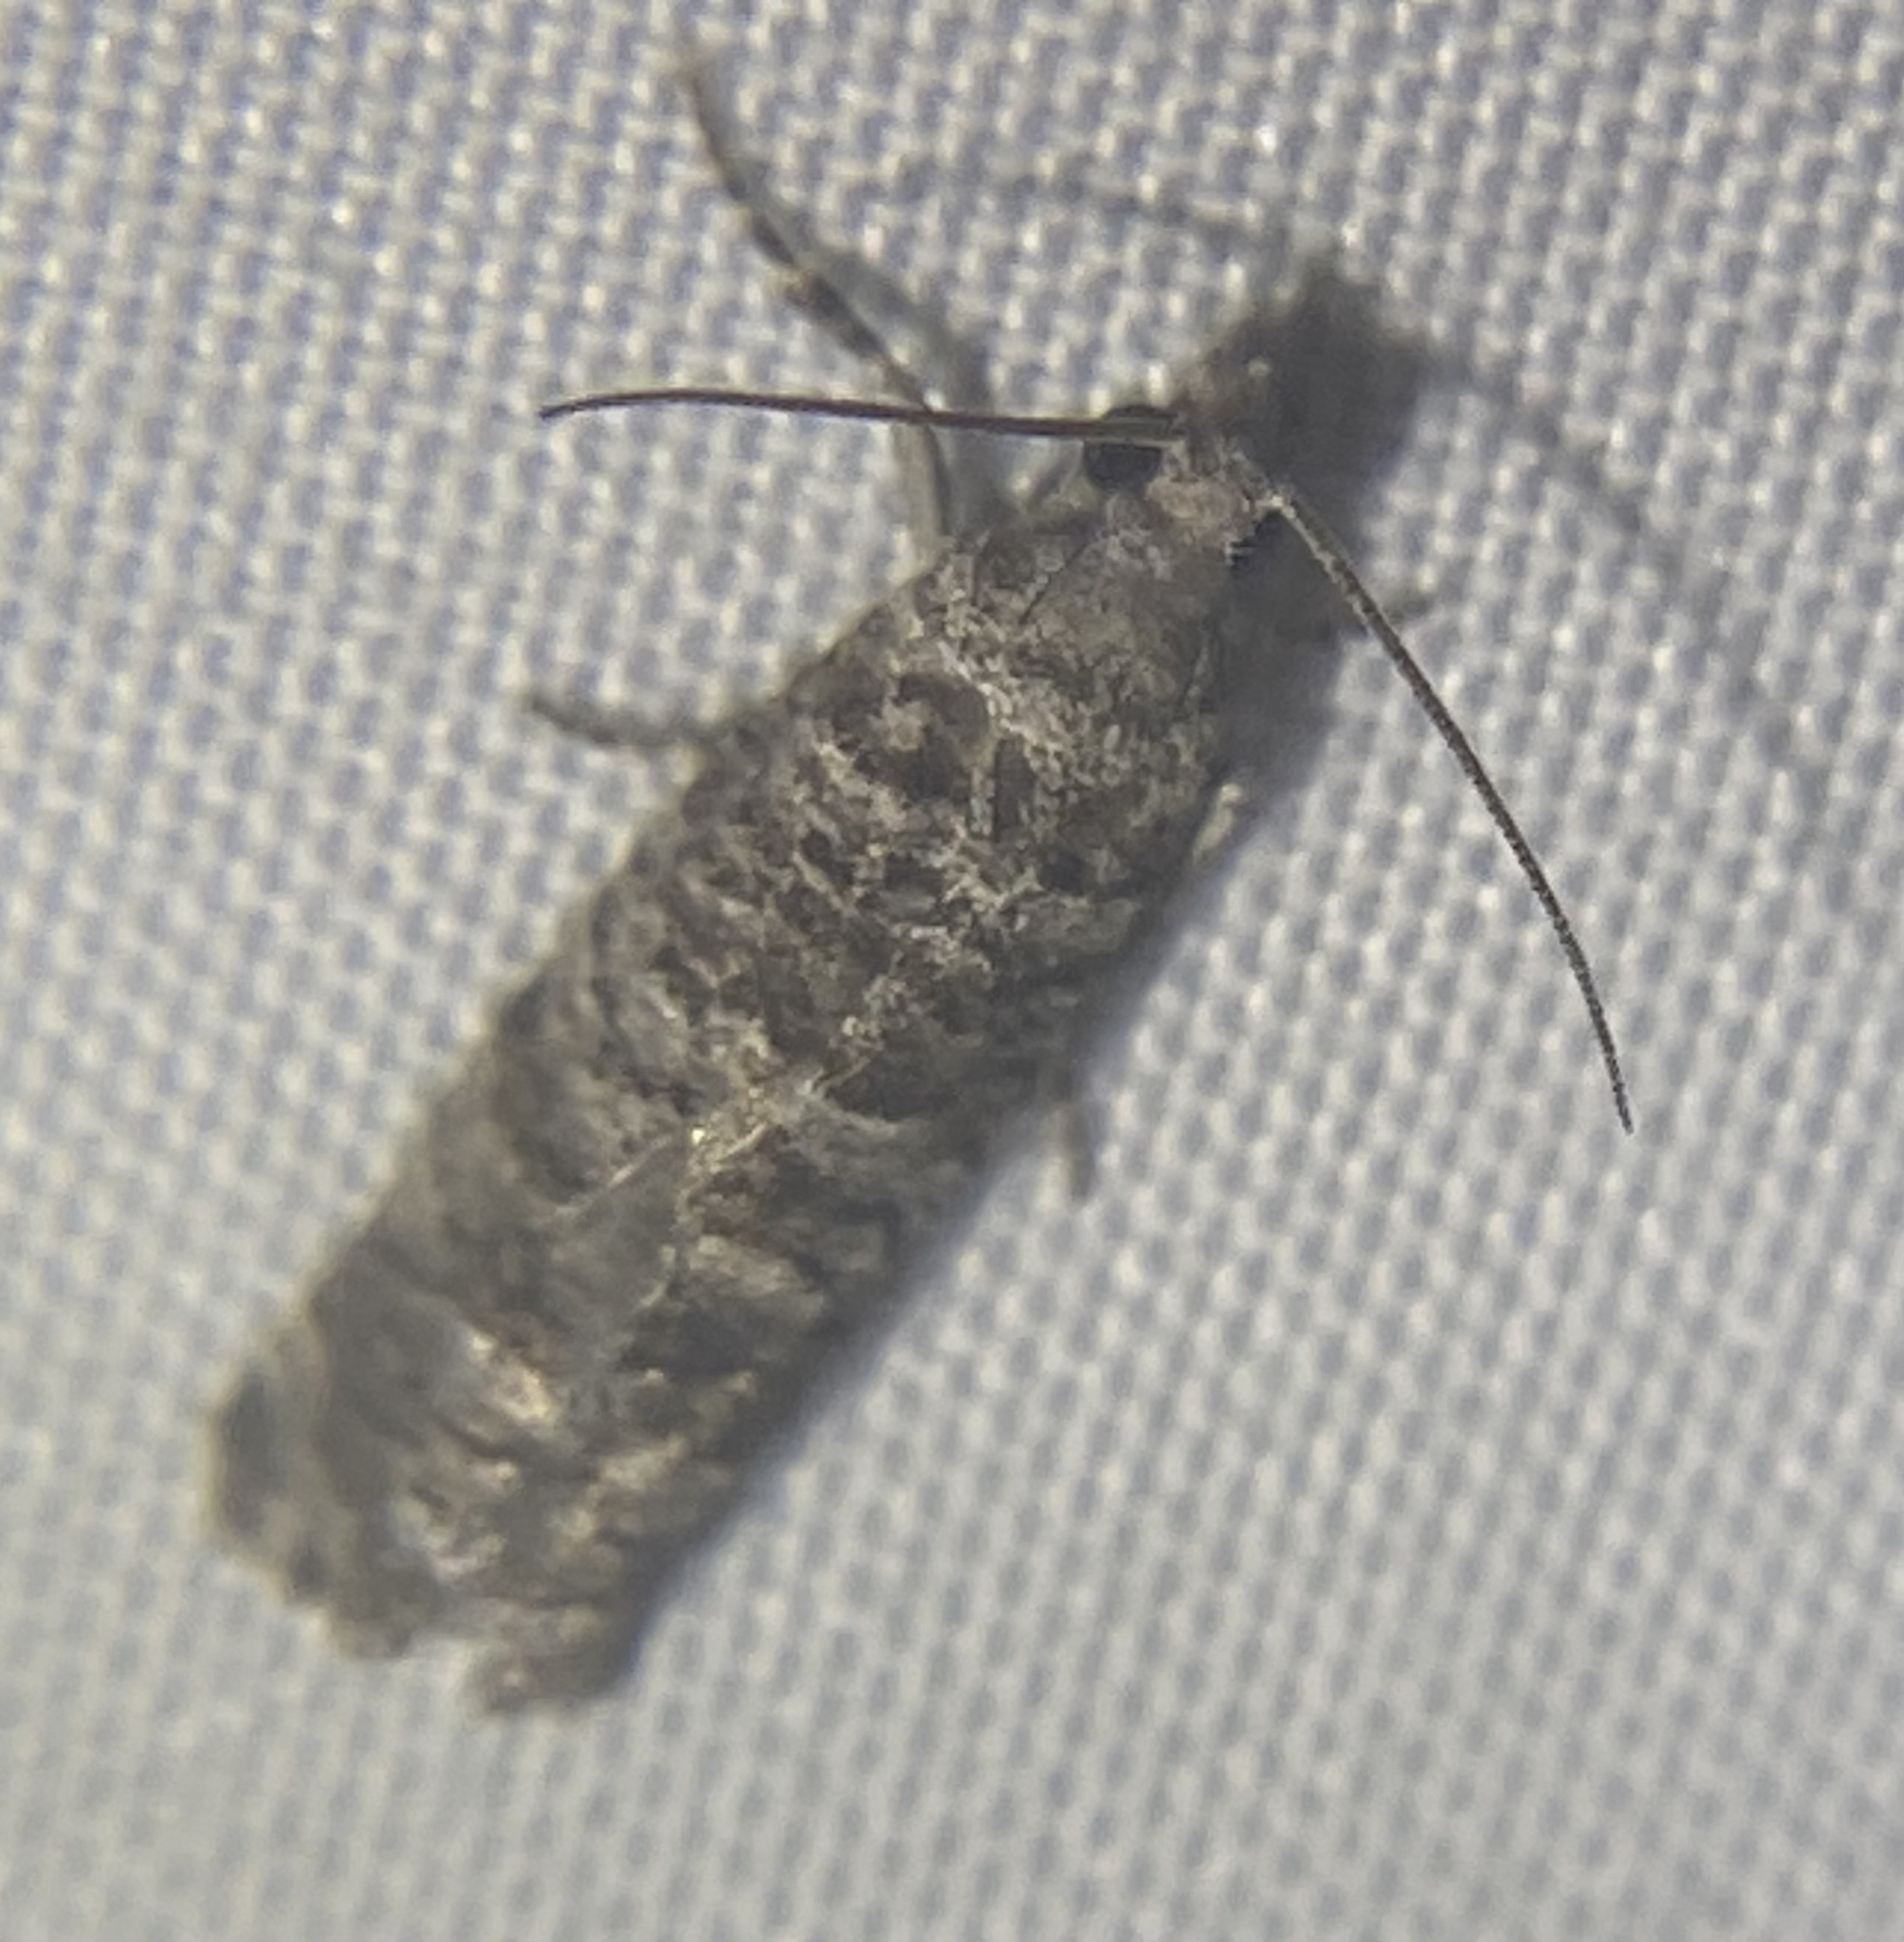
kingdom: Animalia
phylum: Arthropoda
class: Insecta
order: Lepidoptera
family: Tortricidae
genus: Retinia
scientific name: Retinia gemistrigulana
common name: Gray retinia moth
